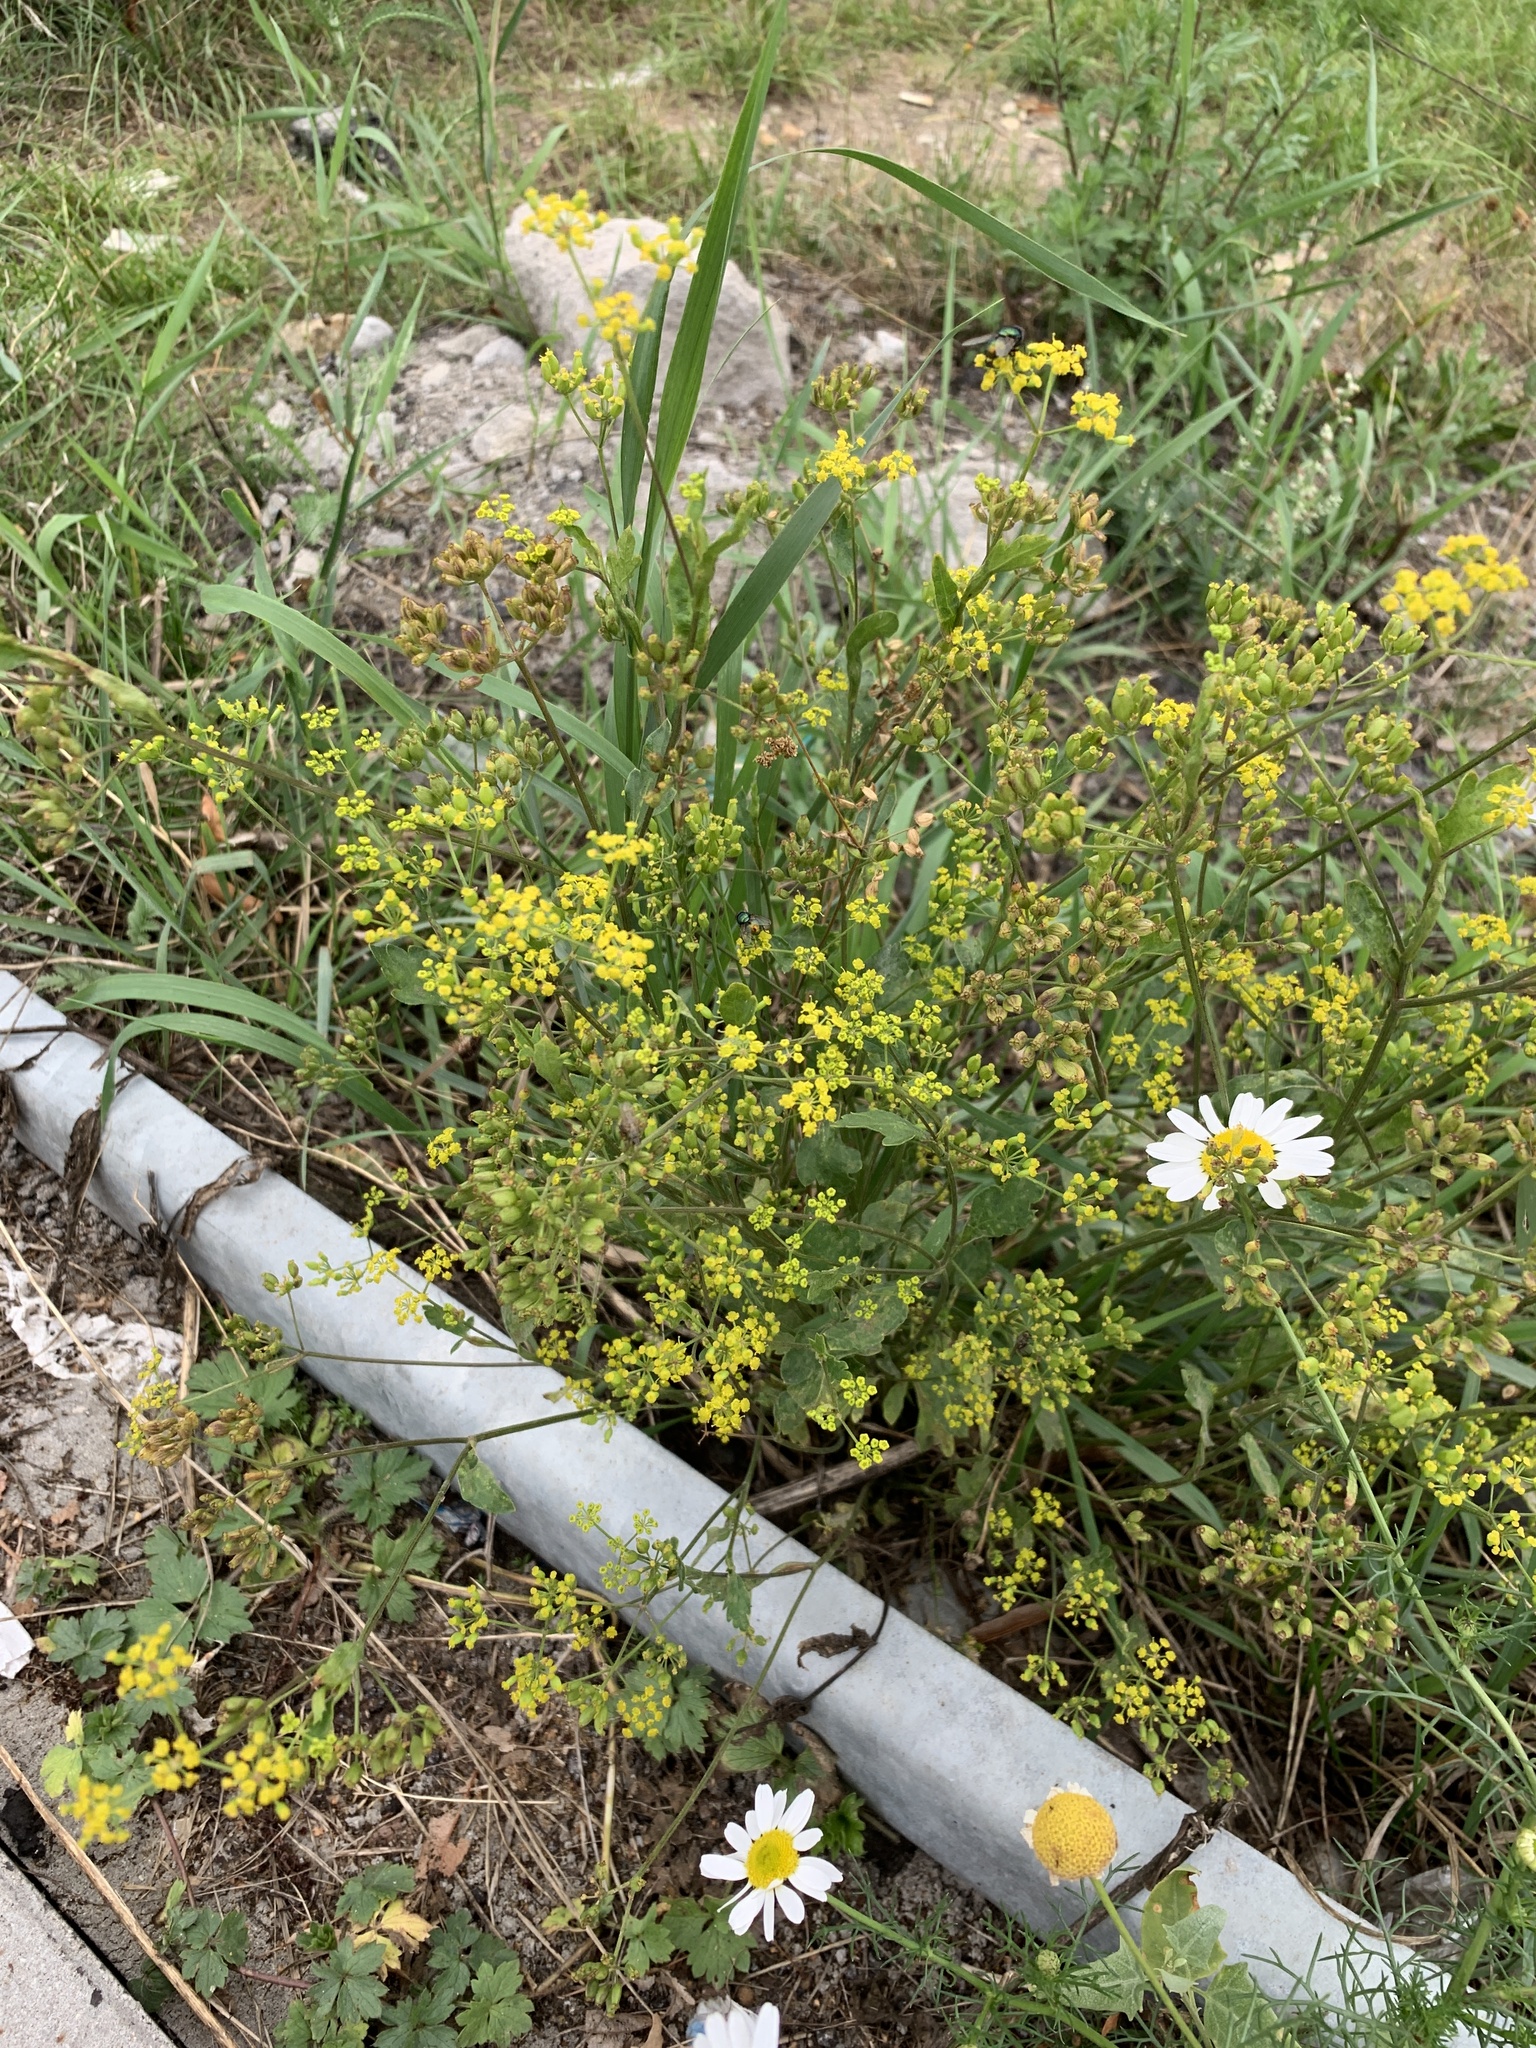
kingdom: Plantae
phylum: Tracheophyta
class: Magnoliopsida
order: Apiales
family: Apiaceae
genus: Pastinaca
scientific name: Pastinaca sativa
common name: Wild parsnip
